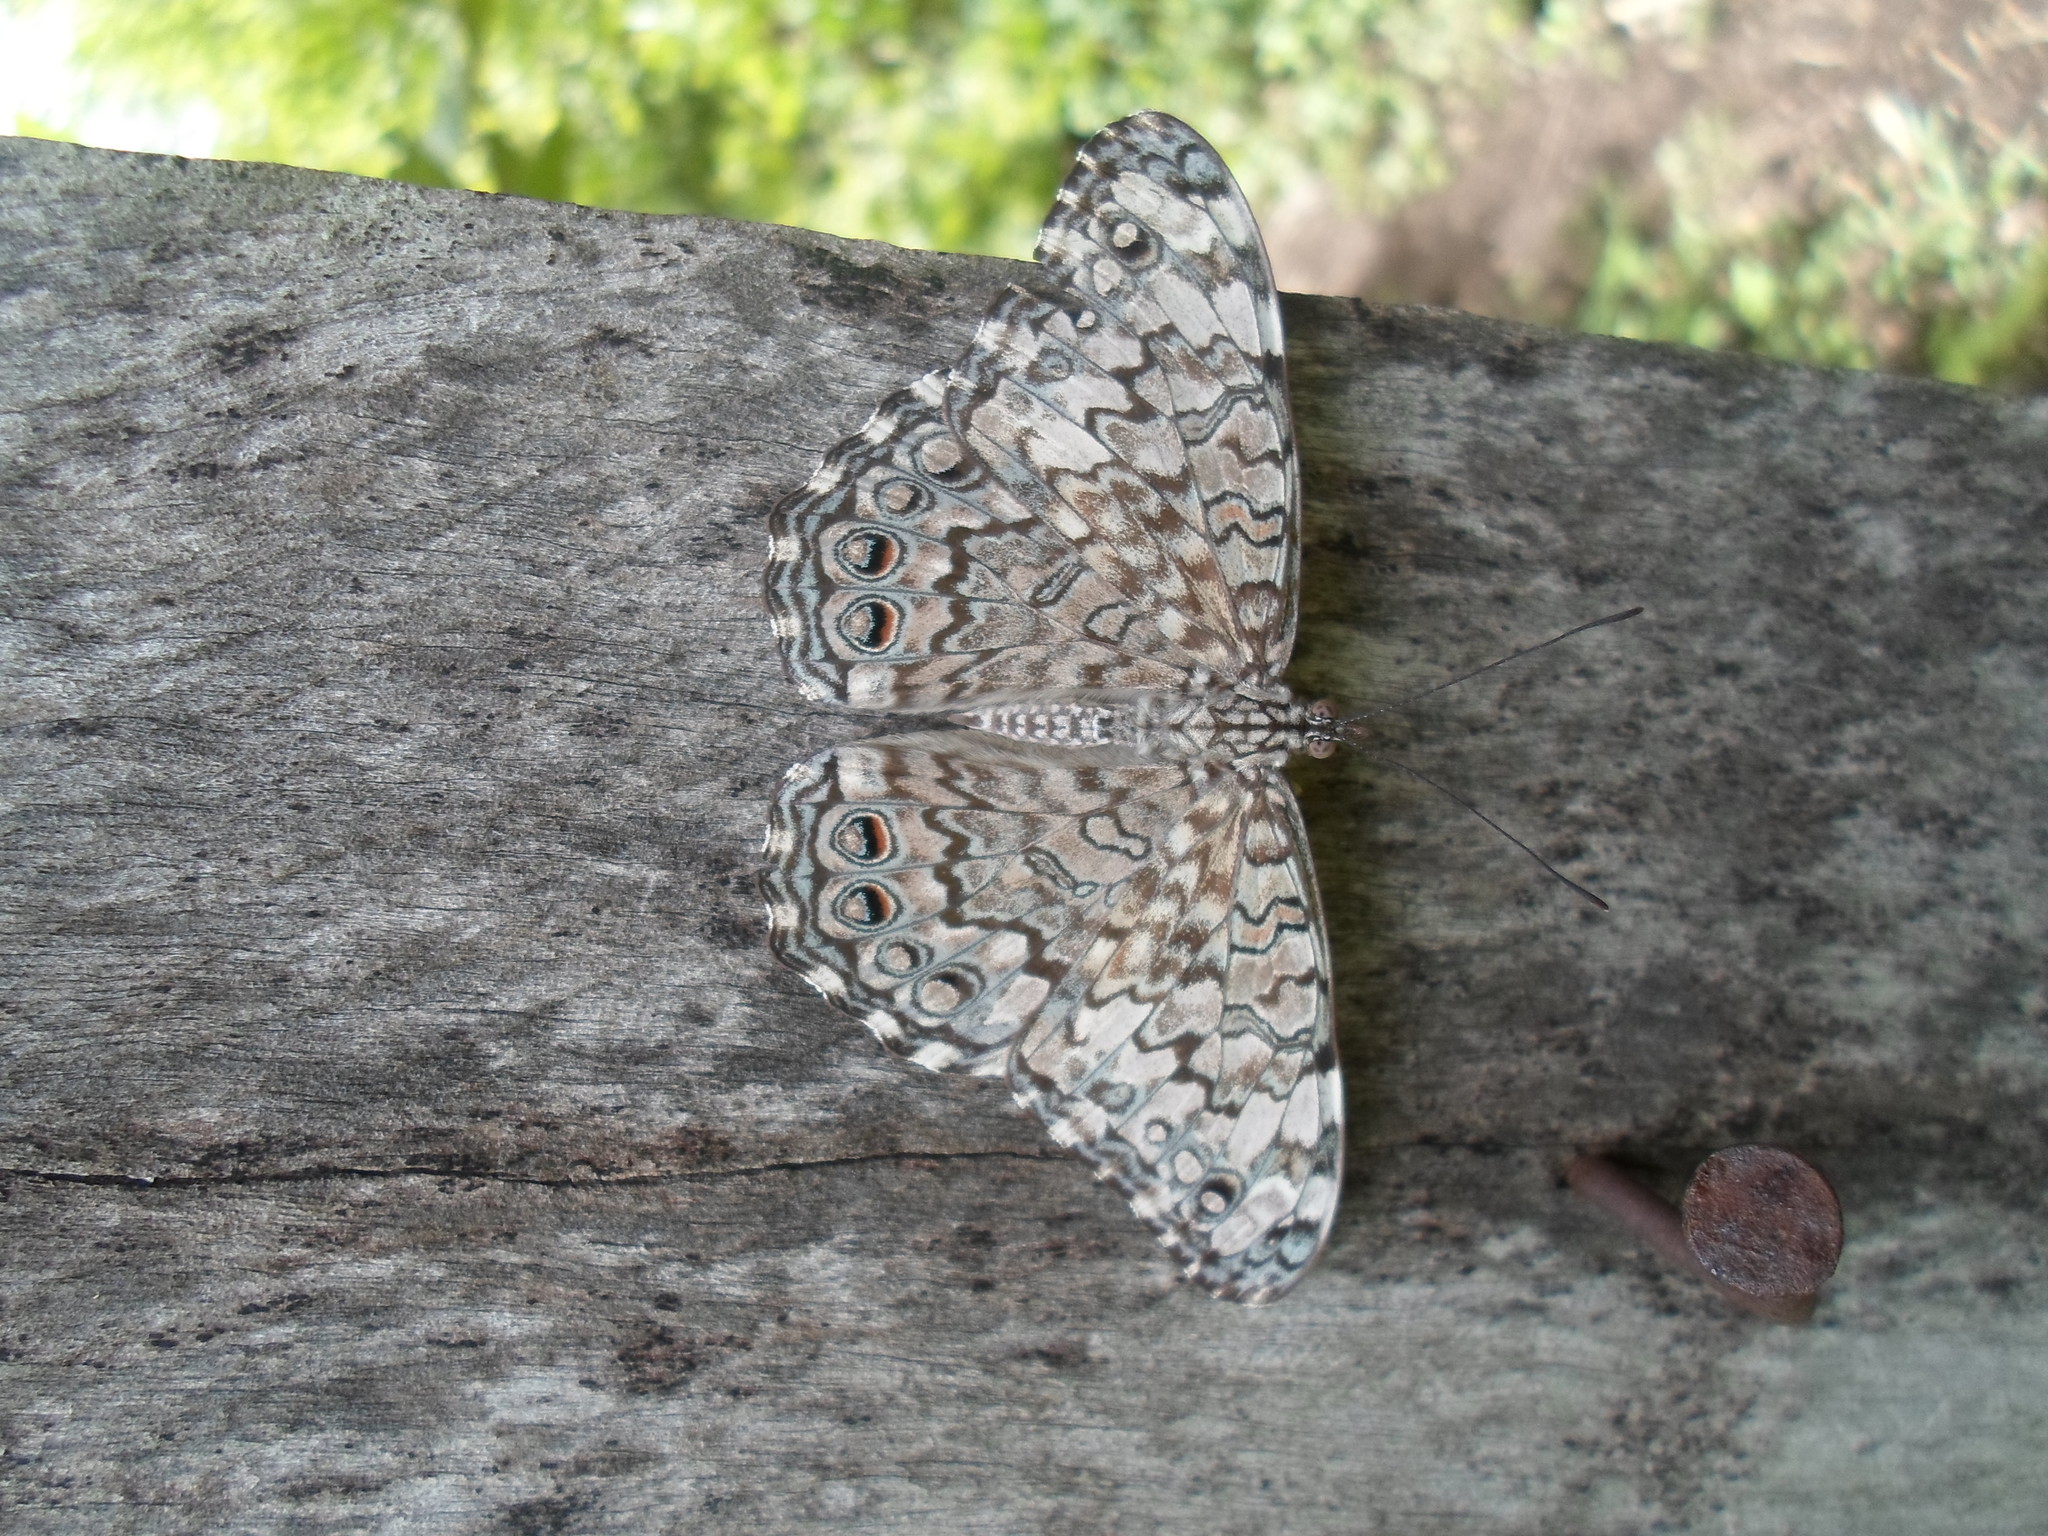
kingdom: Animalia
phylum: Arthropoda
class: Insecta
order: Lepidoptera
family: Nymphalidae
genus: Hamadryas
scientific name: Hamadryas februa
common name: Gray cracker
